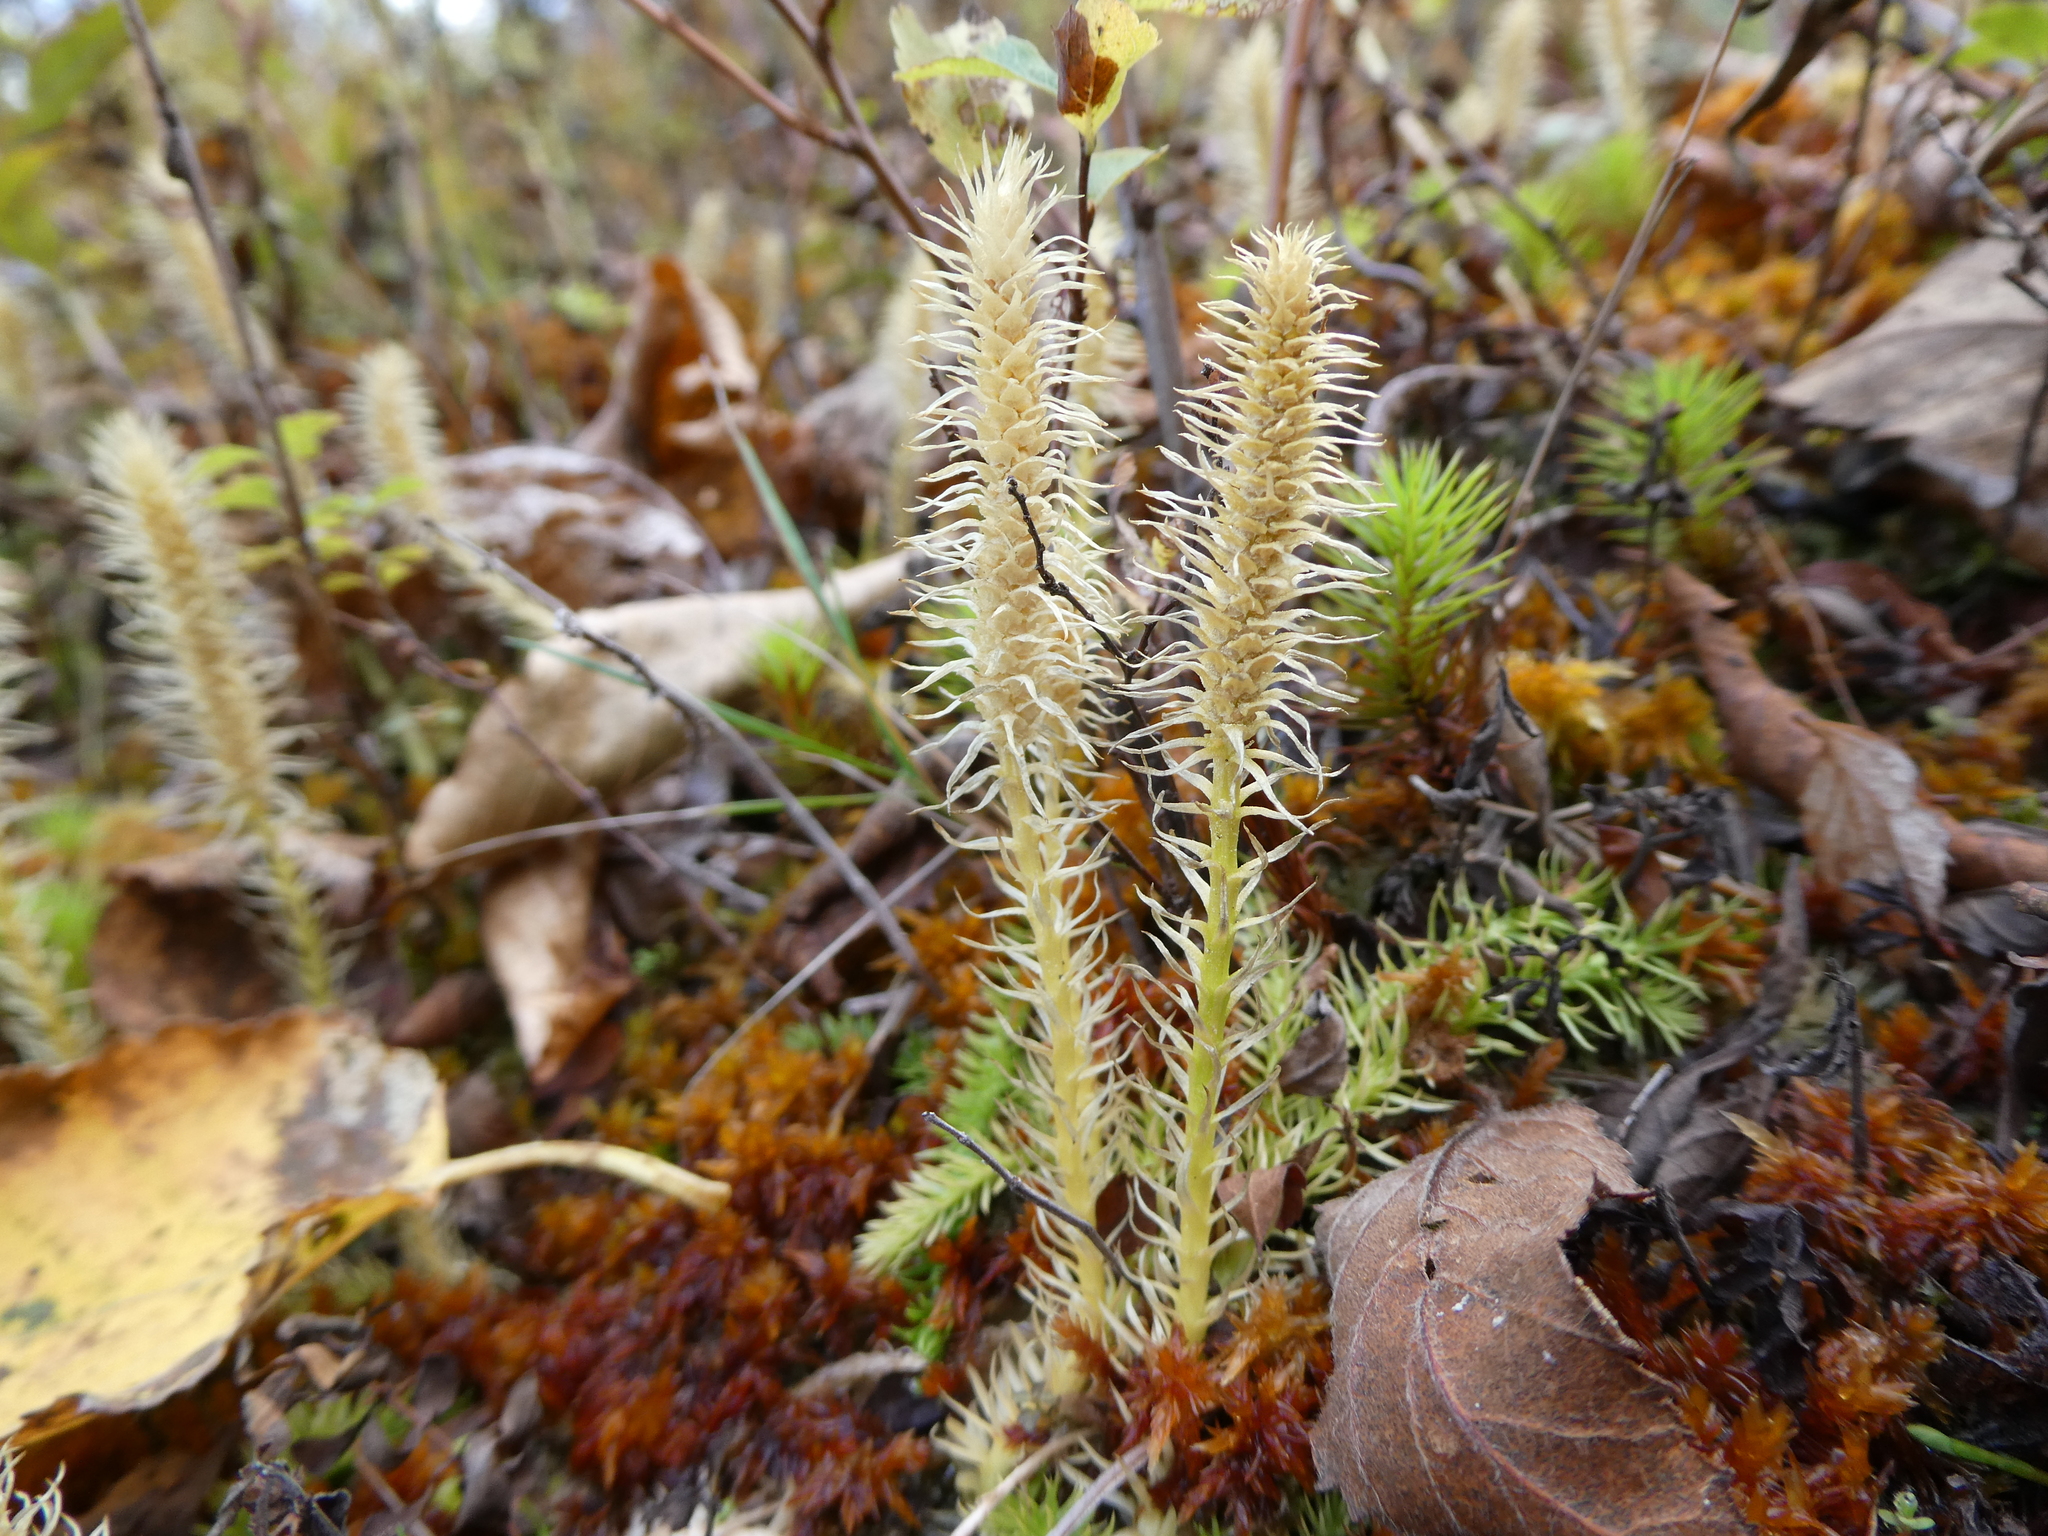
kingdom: Plantae
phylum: Tracheophyta
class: Lycopodiopsida
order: Lycopodiales
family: Lycopodiaceae
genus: Lycopodiella
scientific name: Lycopodiella inundata
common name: Marsh clubmoss
